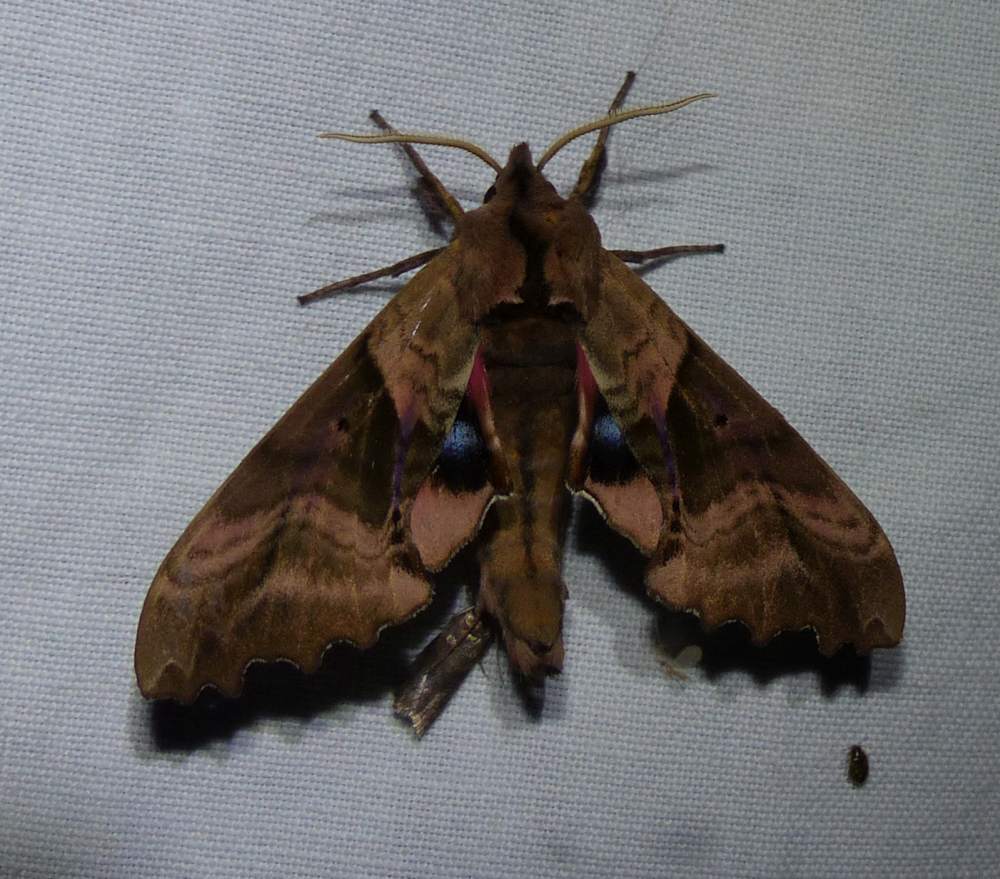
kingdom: Animalia
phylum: Arthropoda
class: Insecta
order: Lepidoptera
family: Sphingidae
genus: Paonias
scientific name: Paonias excaecata
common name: Blind-eyed sphinx
